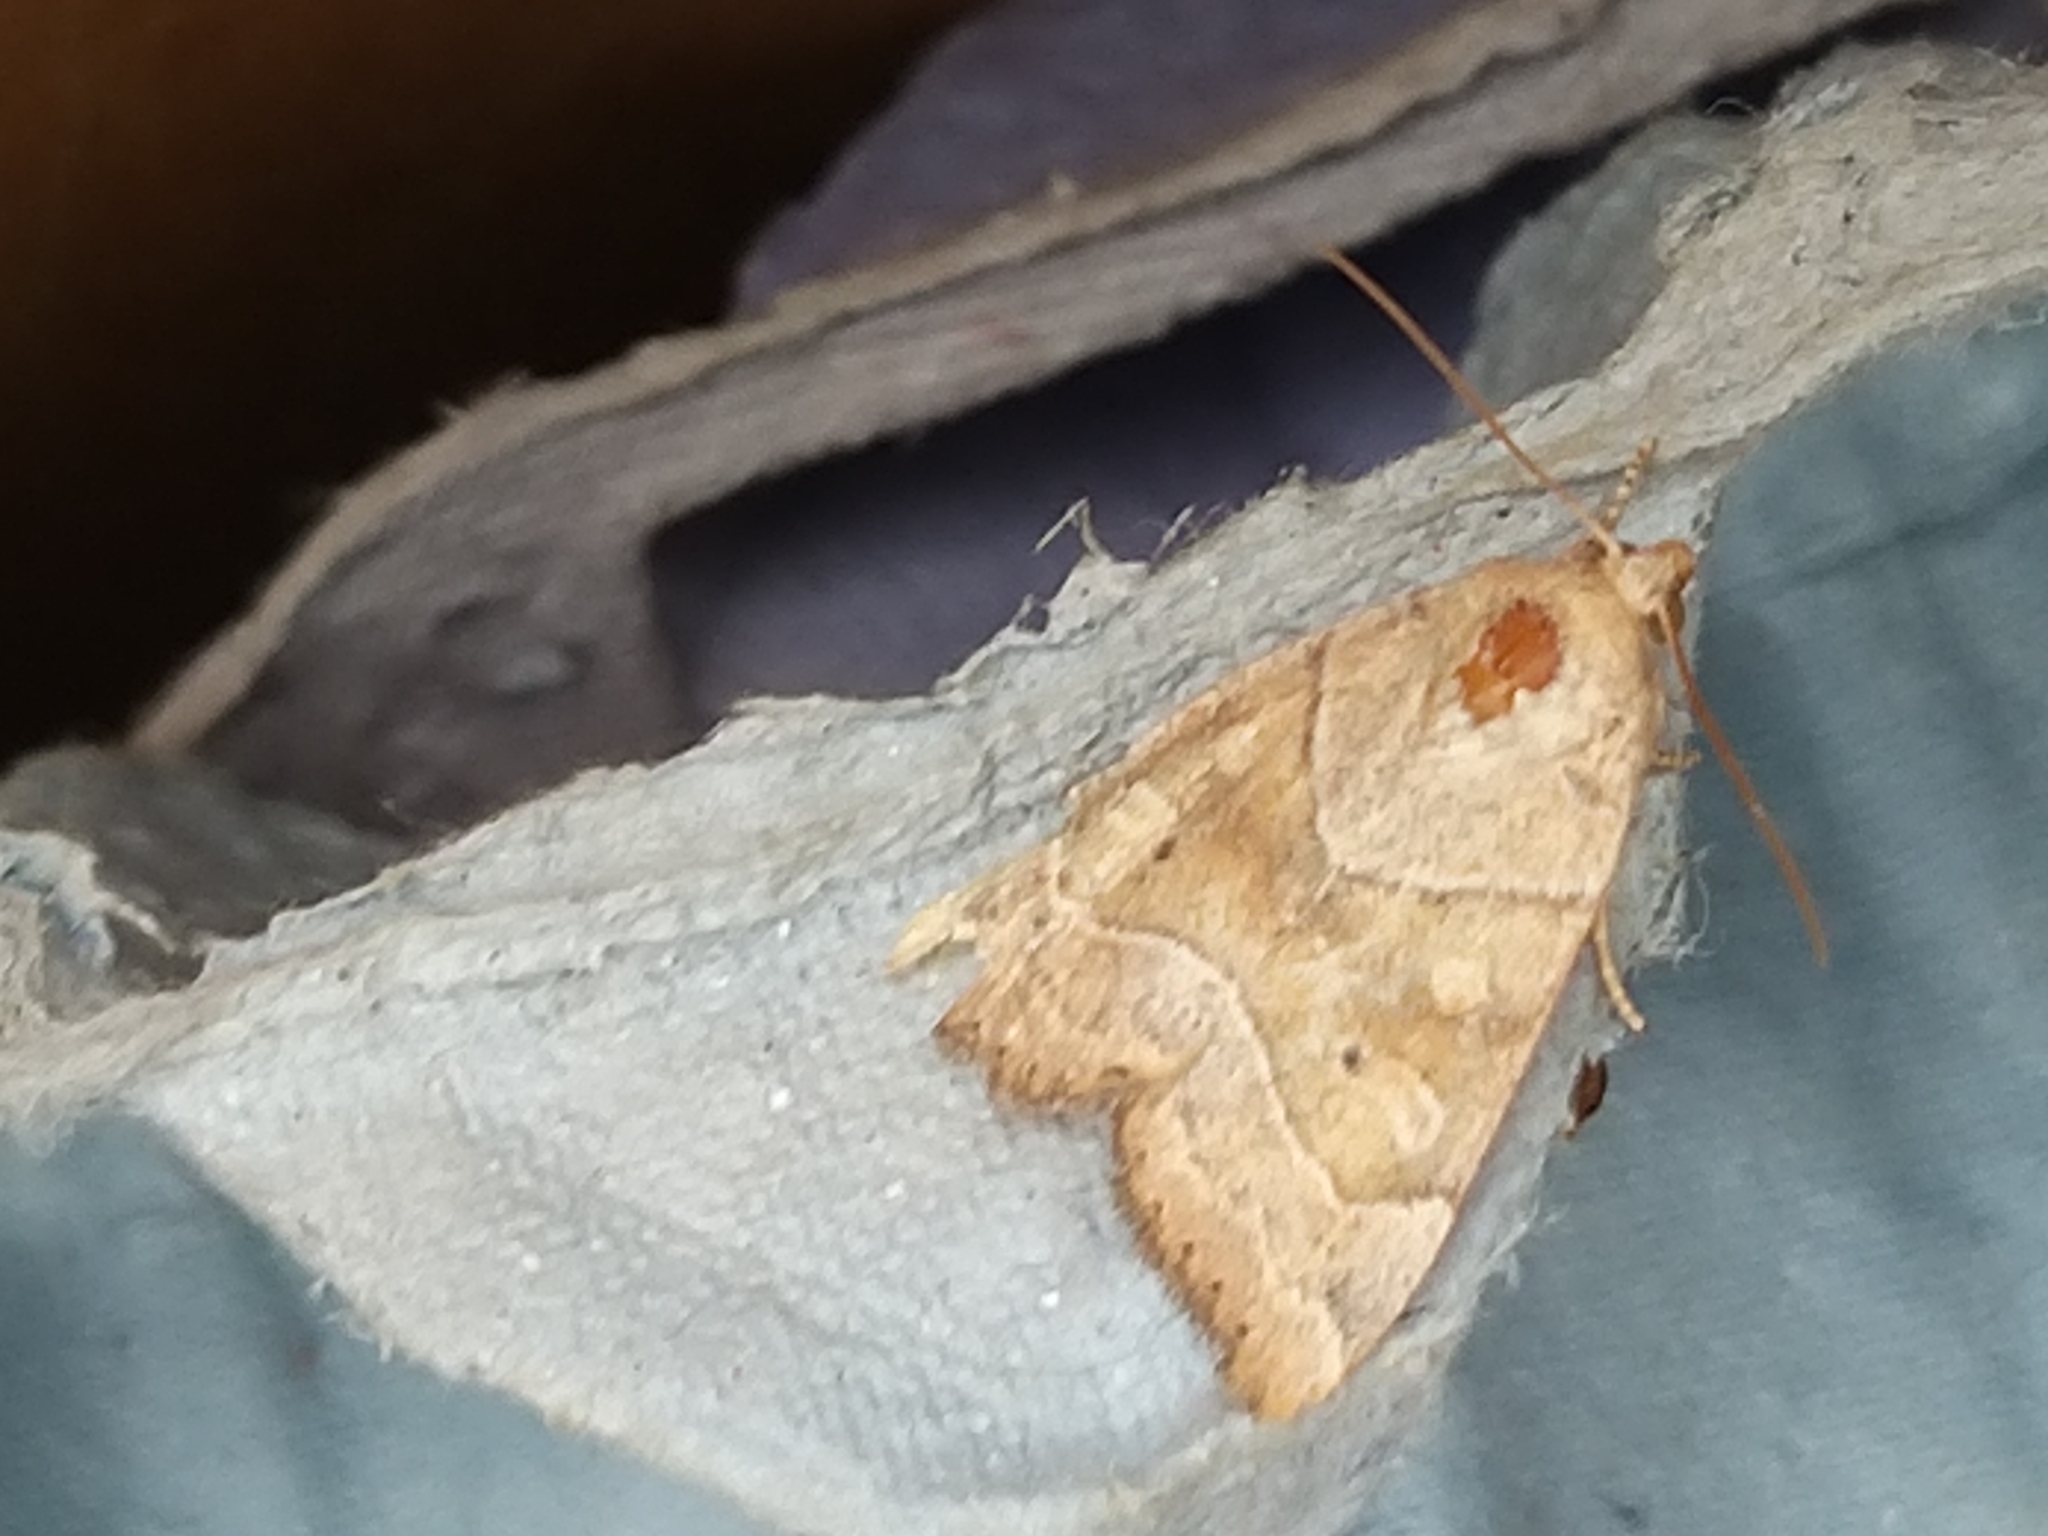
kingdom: Animalia
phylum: Arthropoda
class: Insecta
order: Lepidoptera
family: Noctuidae
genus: Cosmia
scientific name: Cosmia trapezina
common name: Dun-bar
